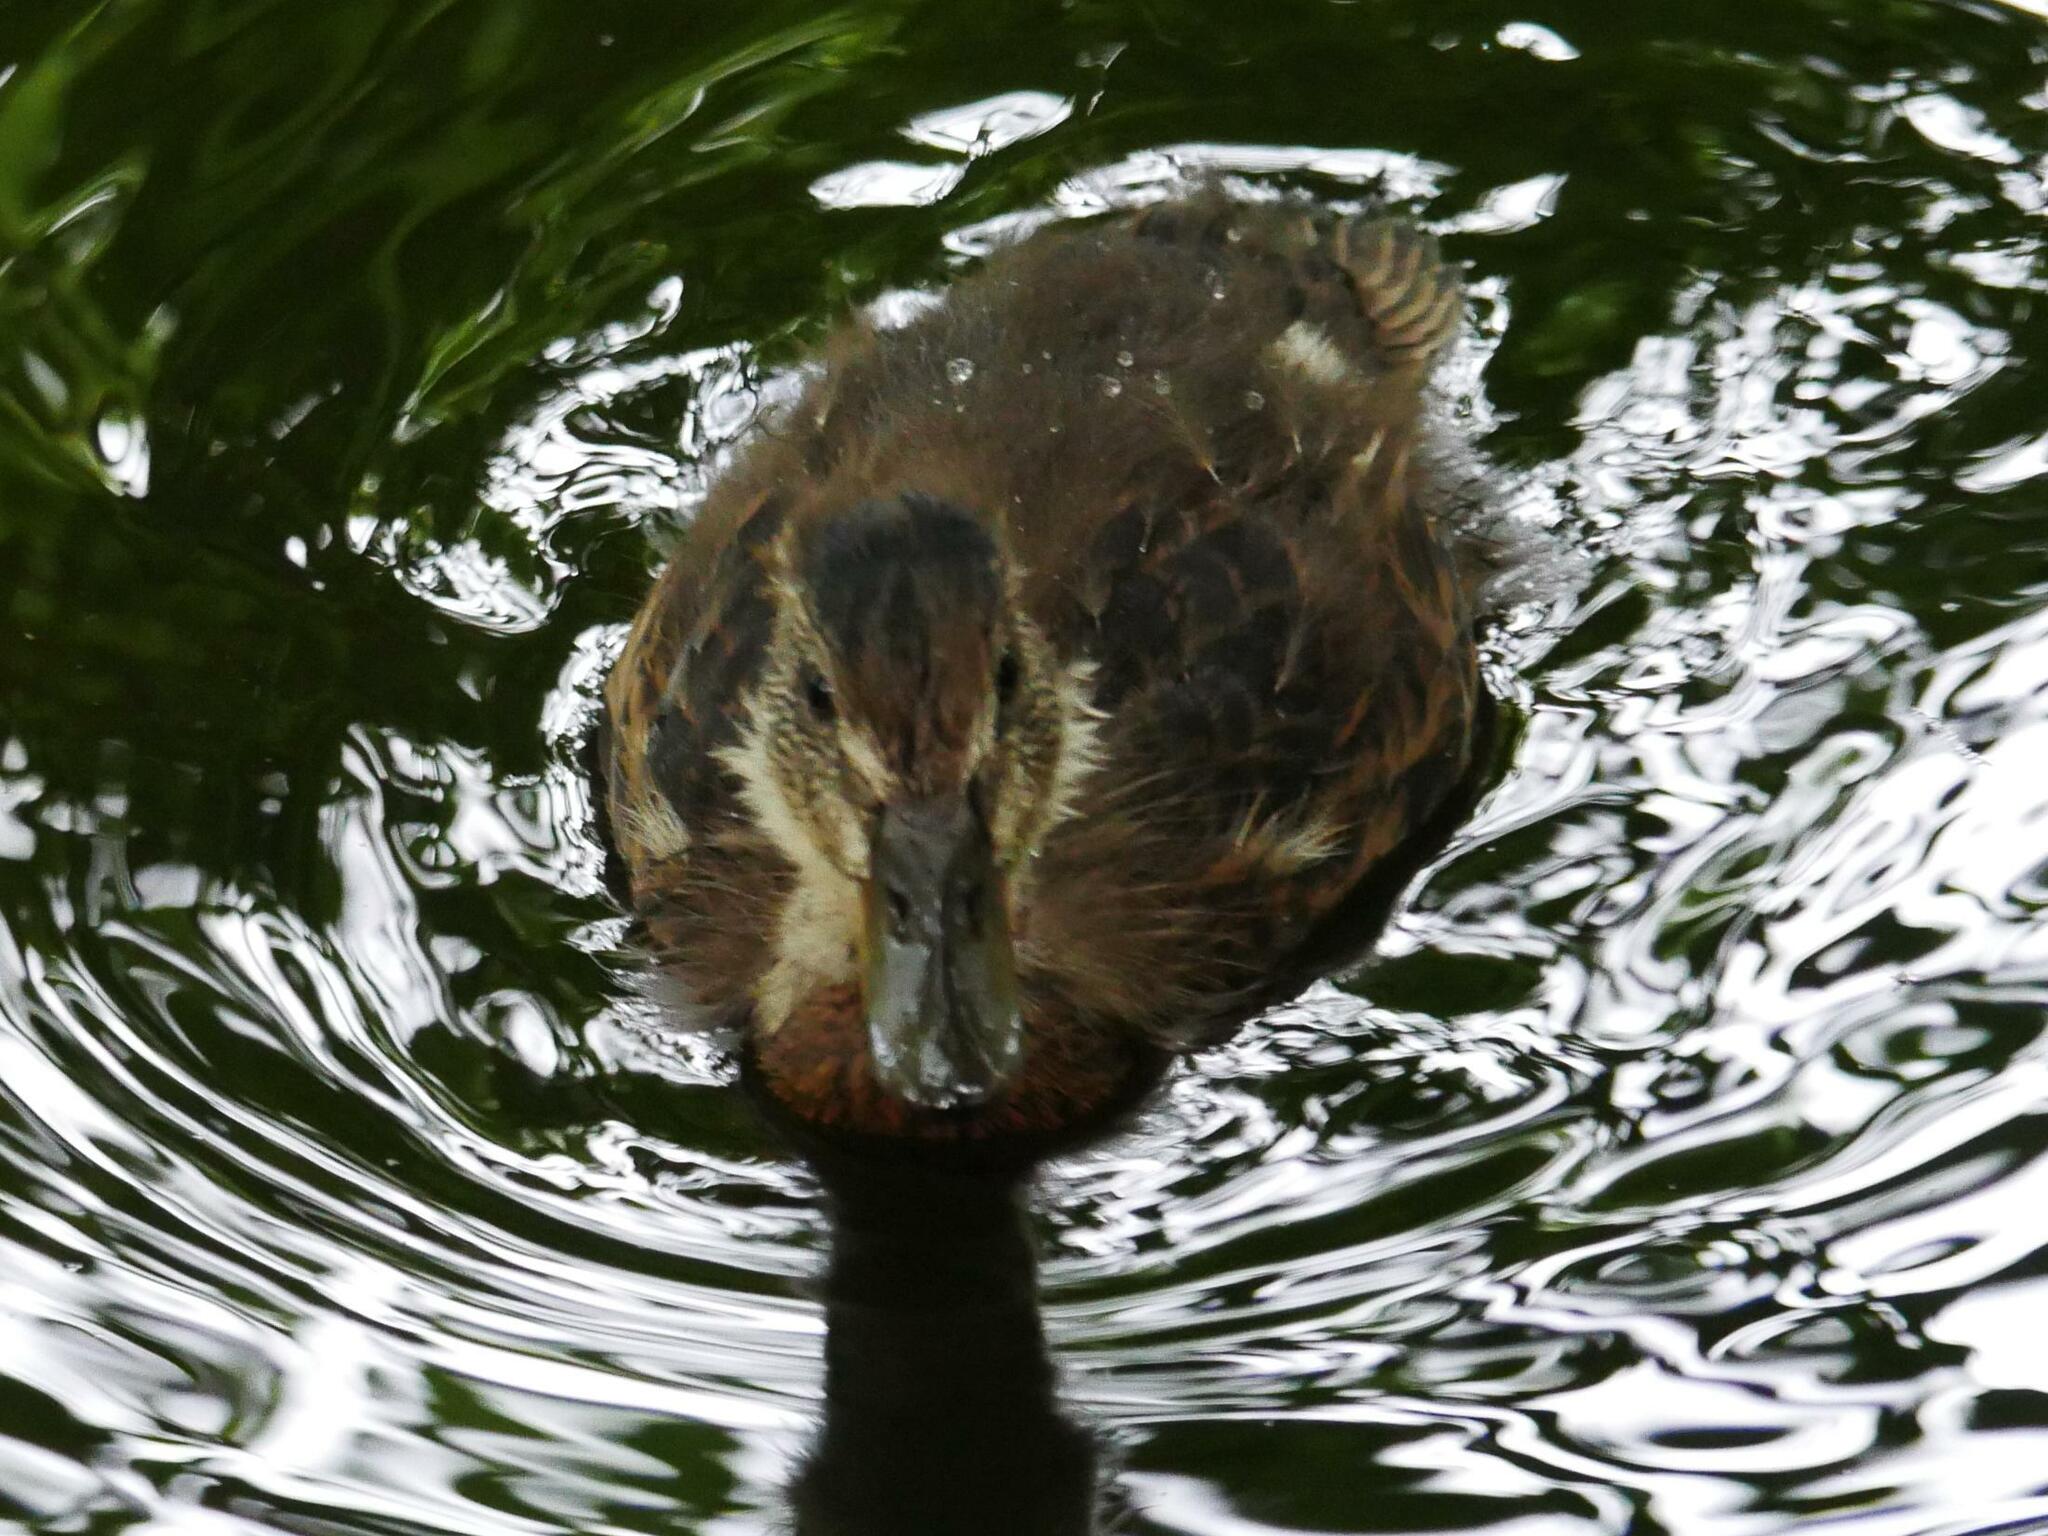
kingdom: Animalia
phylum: Chordata
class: Aves
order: Anseriformes
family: Anatidae
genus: Anas
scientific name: Anas platyrhynchos
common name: Mallard
